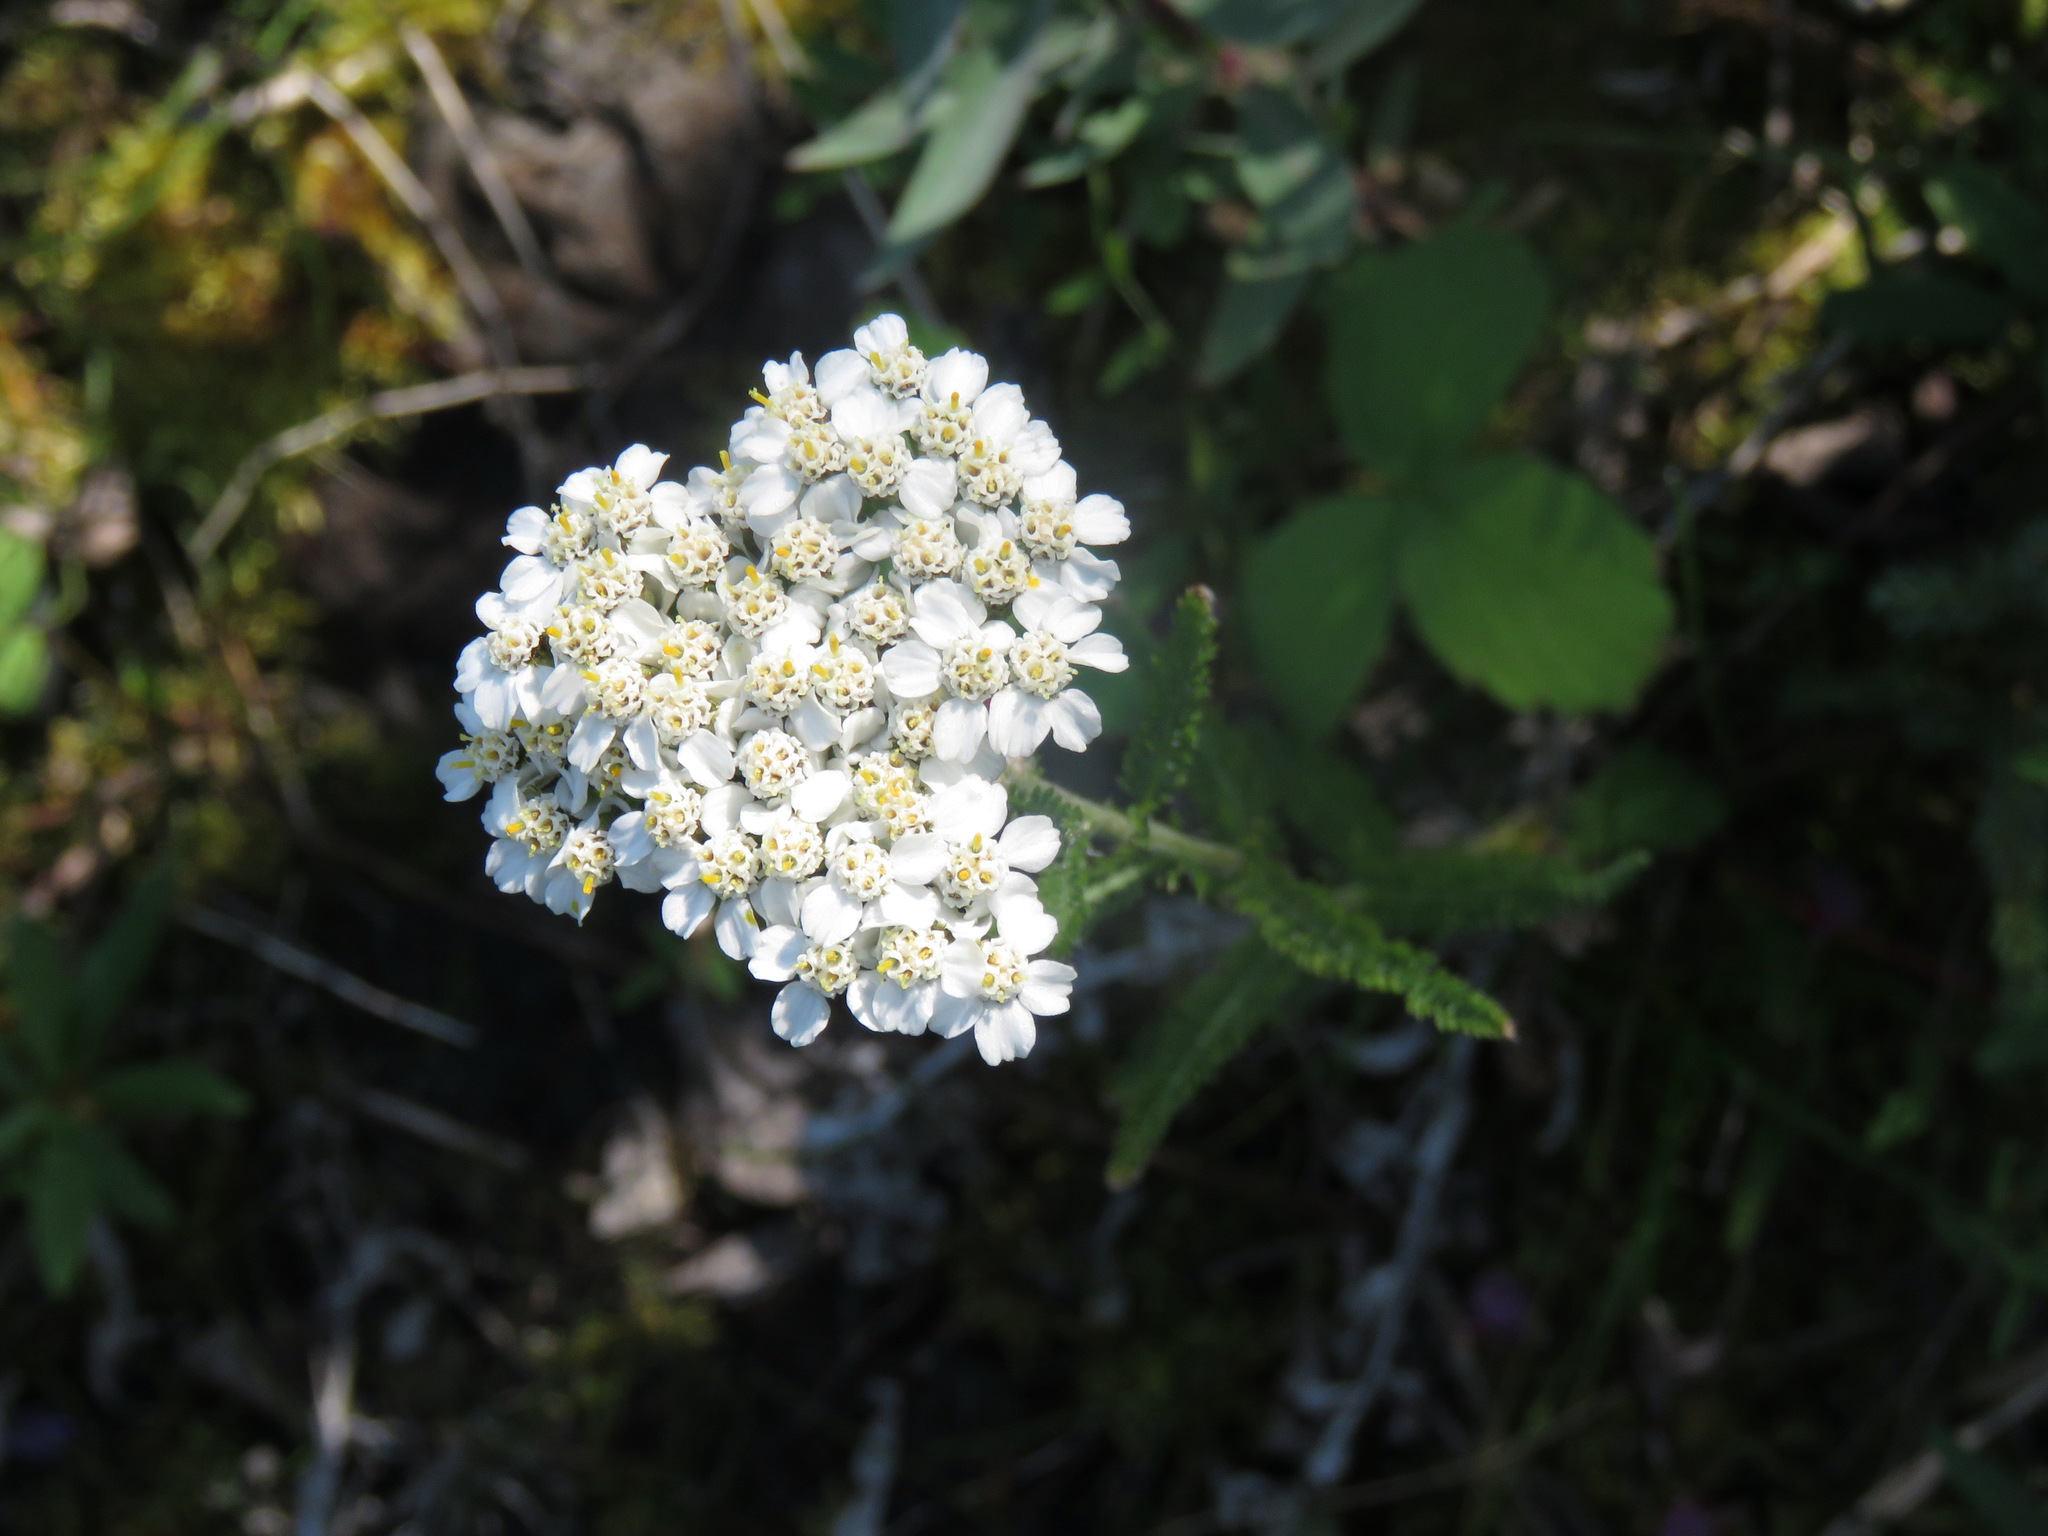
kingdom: Plantae
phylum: Tracheophyta
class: Magnoliopsida
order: Asterales
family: Asteraceae
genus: Achillea
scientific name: Achillea millefolium
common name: Yarrow
